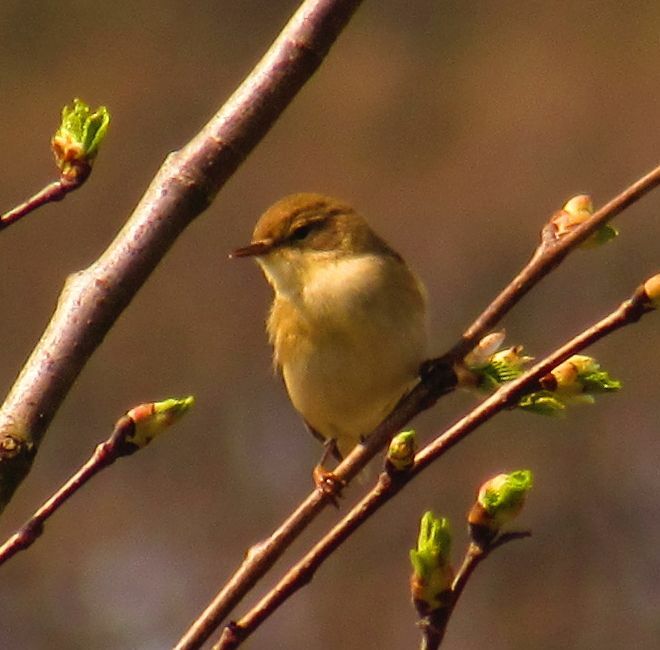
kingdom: Animalia
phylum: Chordata
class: Aves
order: Passeriformes
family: Phylloscopidae
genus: Phylloscopus
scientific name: Phylloscopus trochilus
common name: Willow warbler
